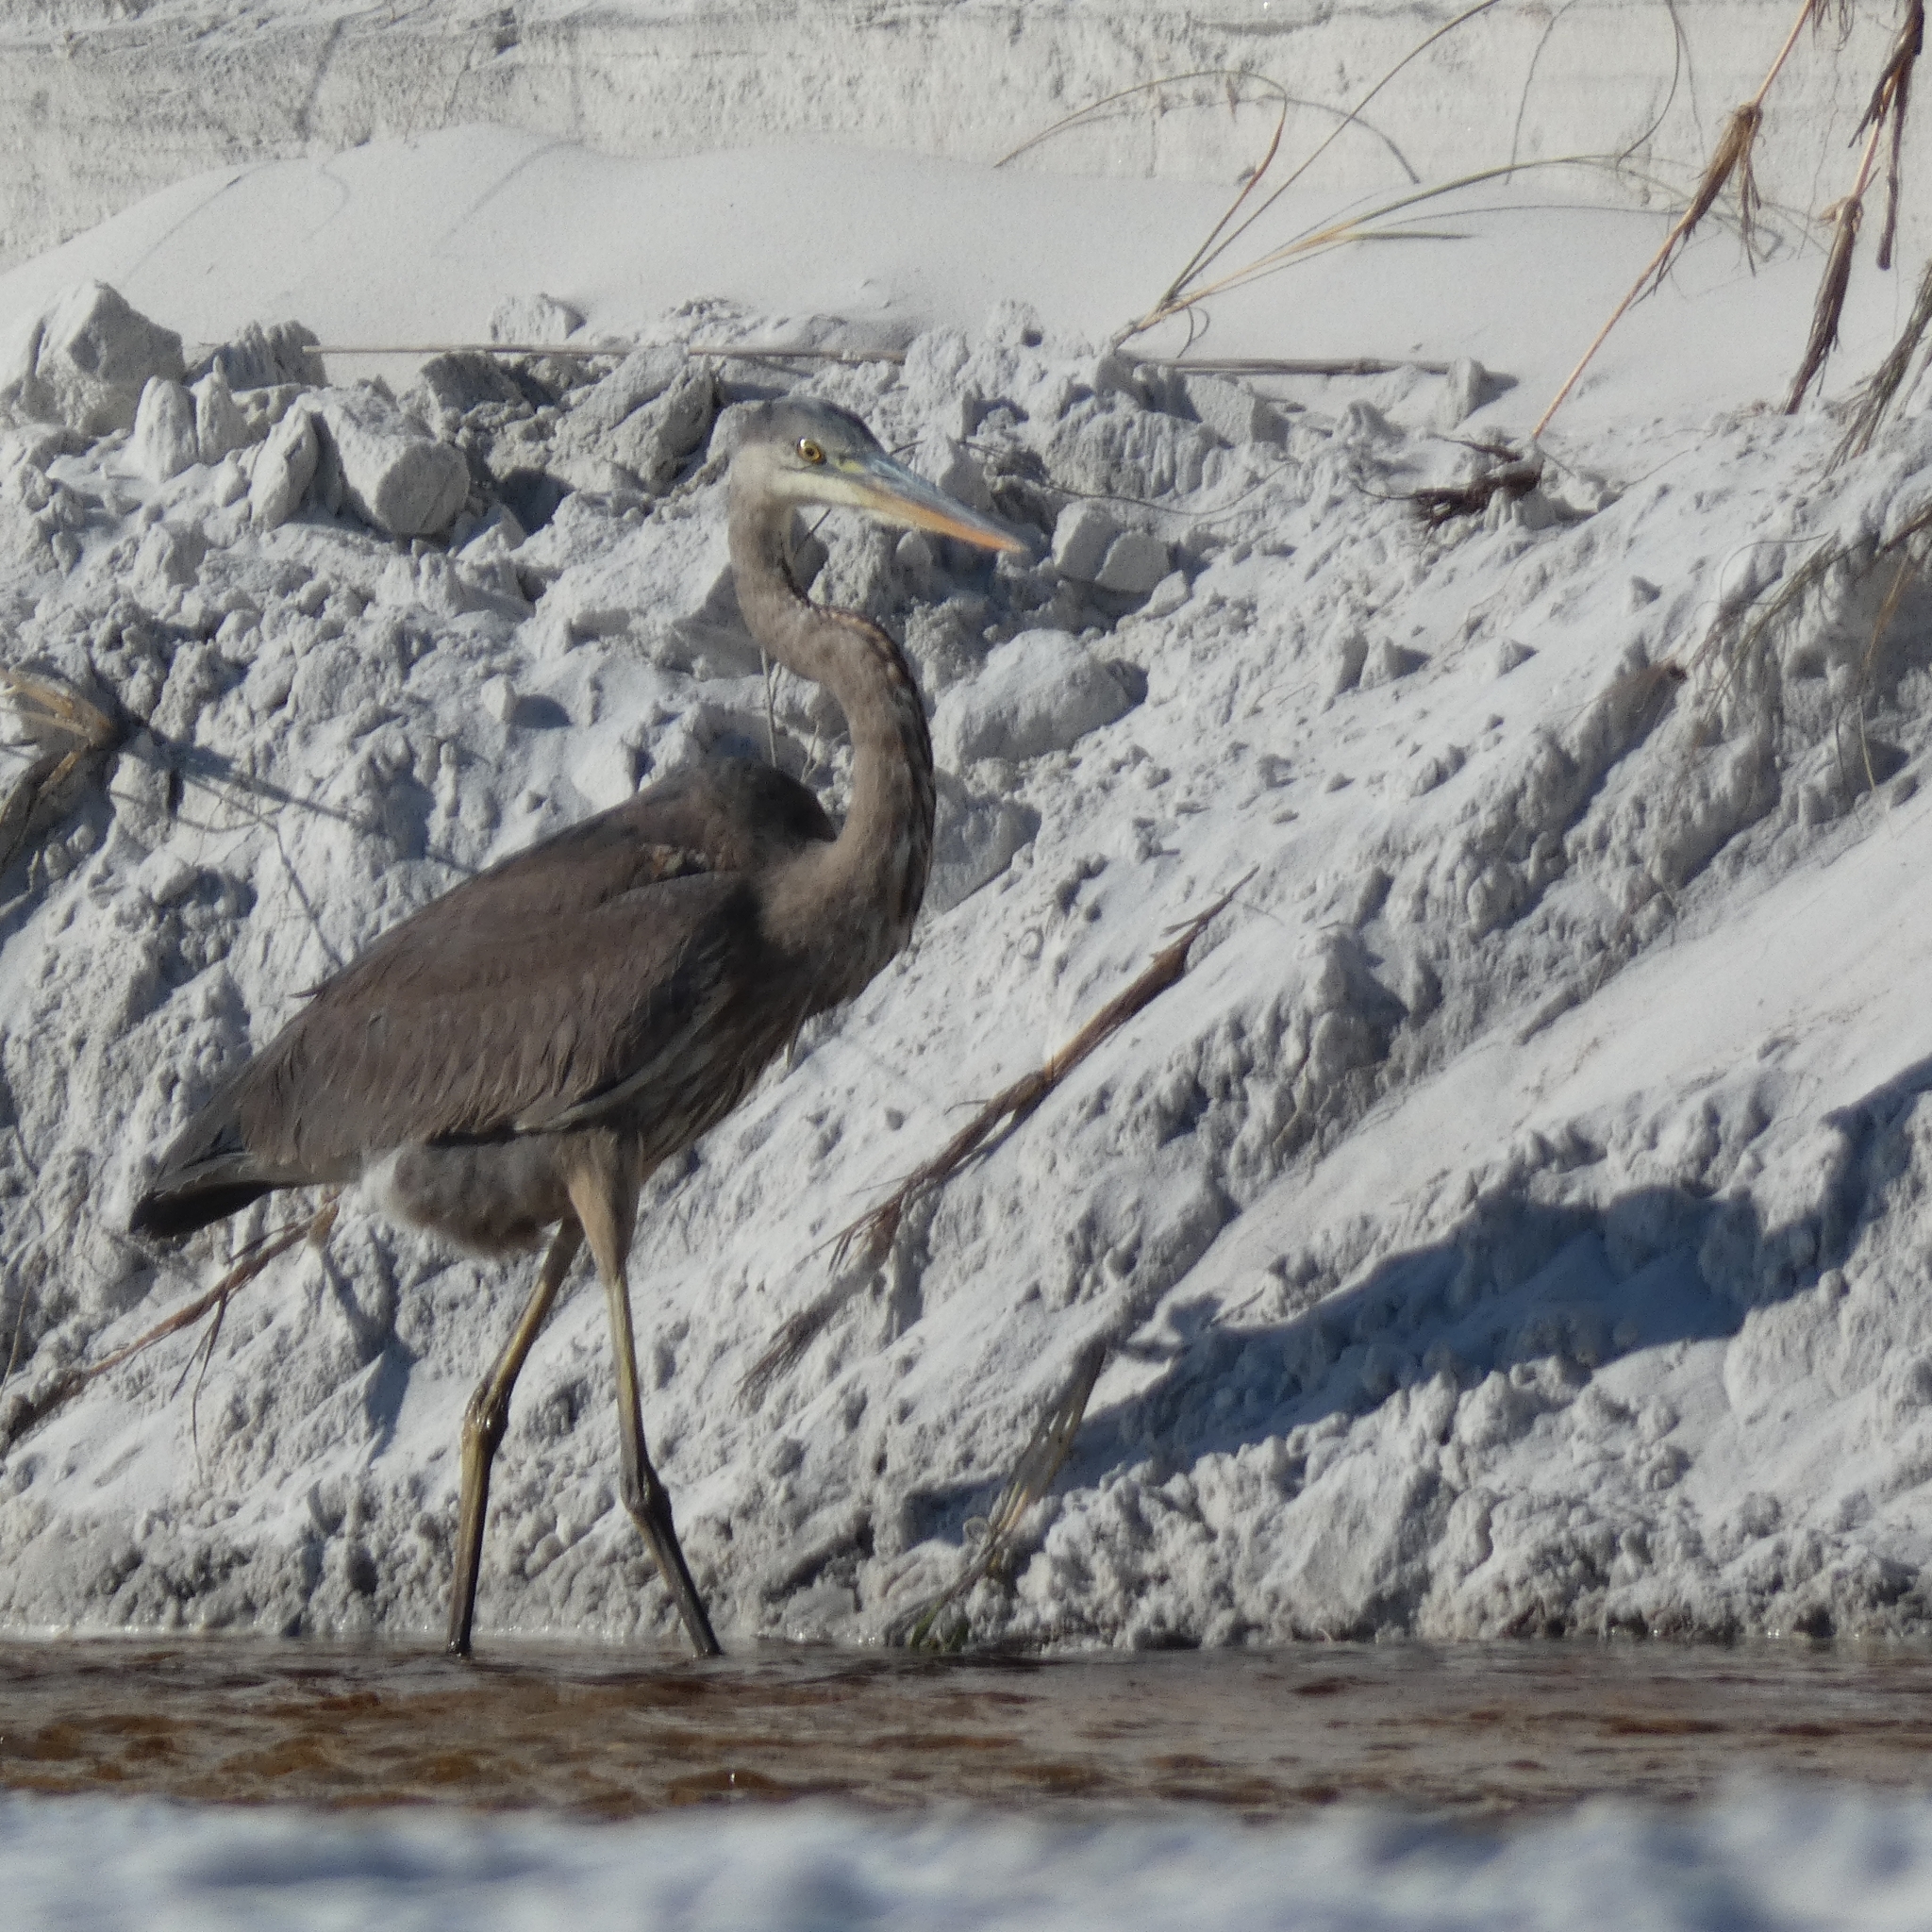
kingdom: Animalia
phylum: Chordata
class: Aves
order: Pelecaniformes
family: Ardeidae
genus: Ardea
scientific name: Ardea herodias
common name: Great blue heron
